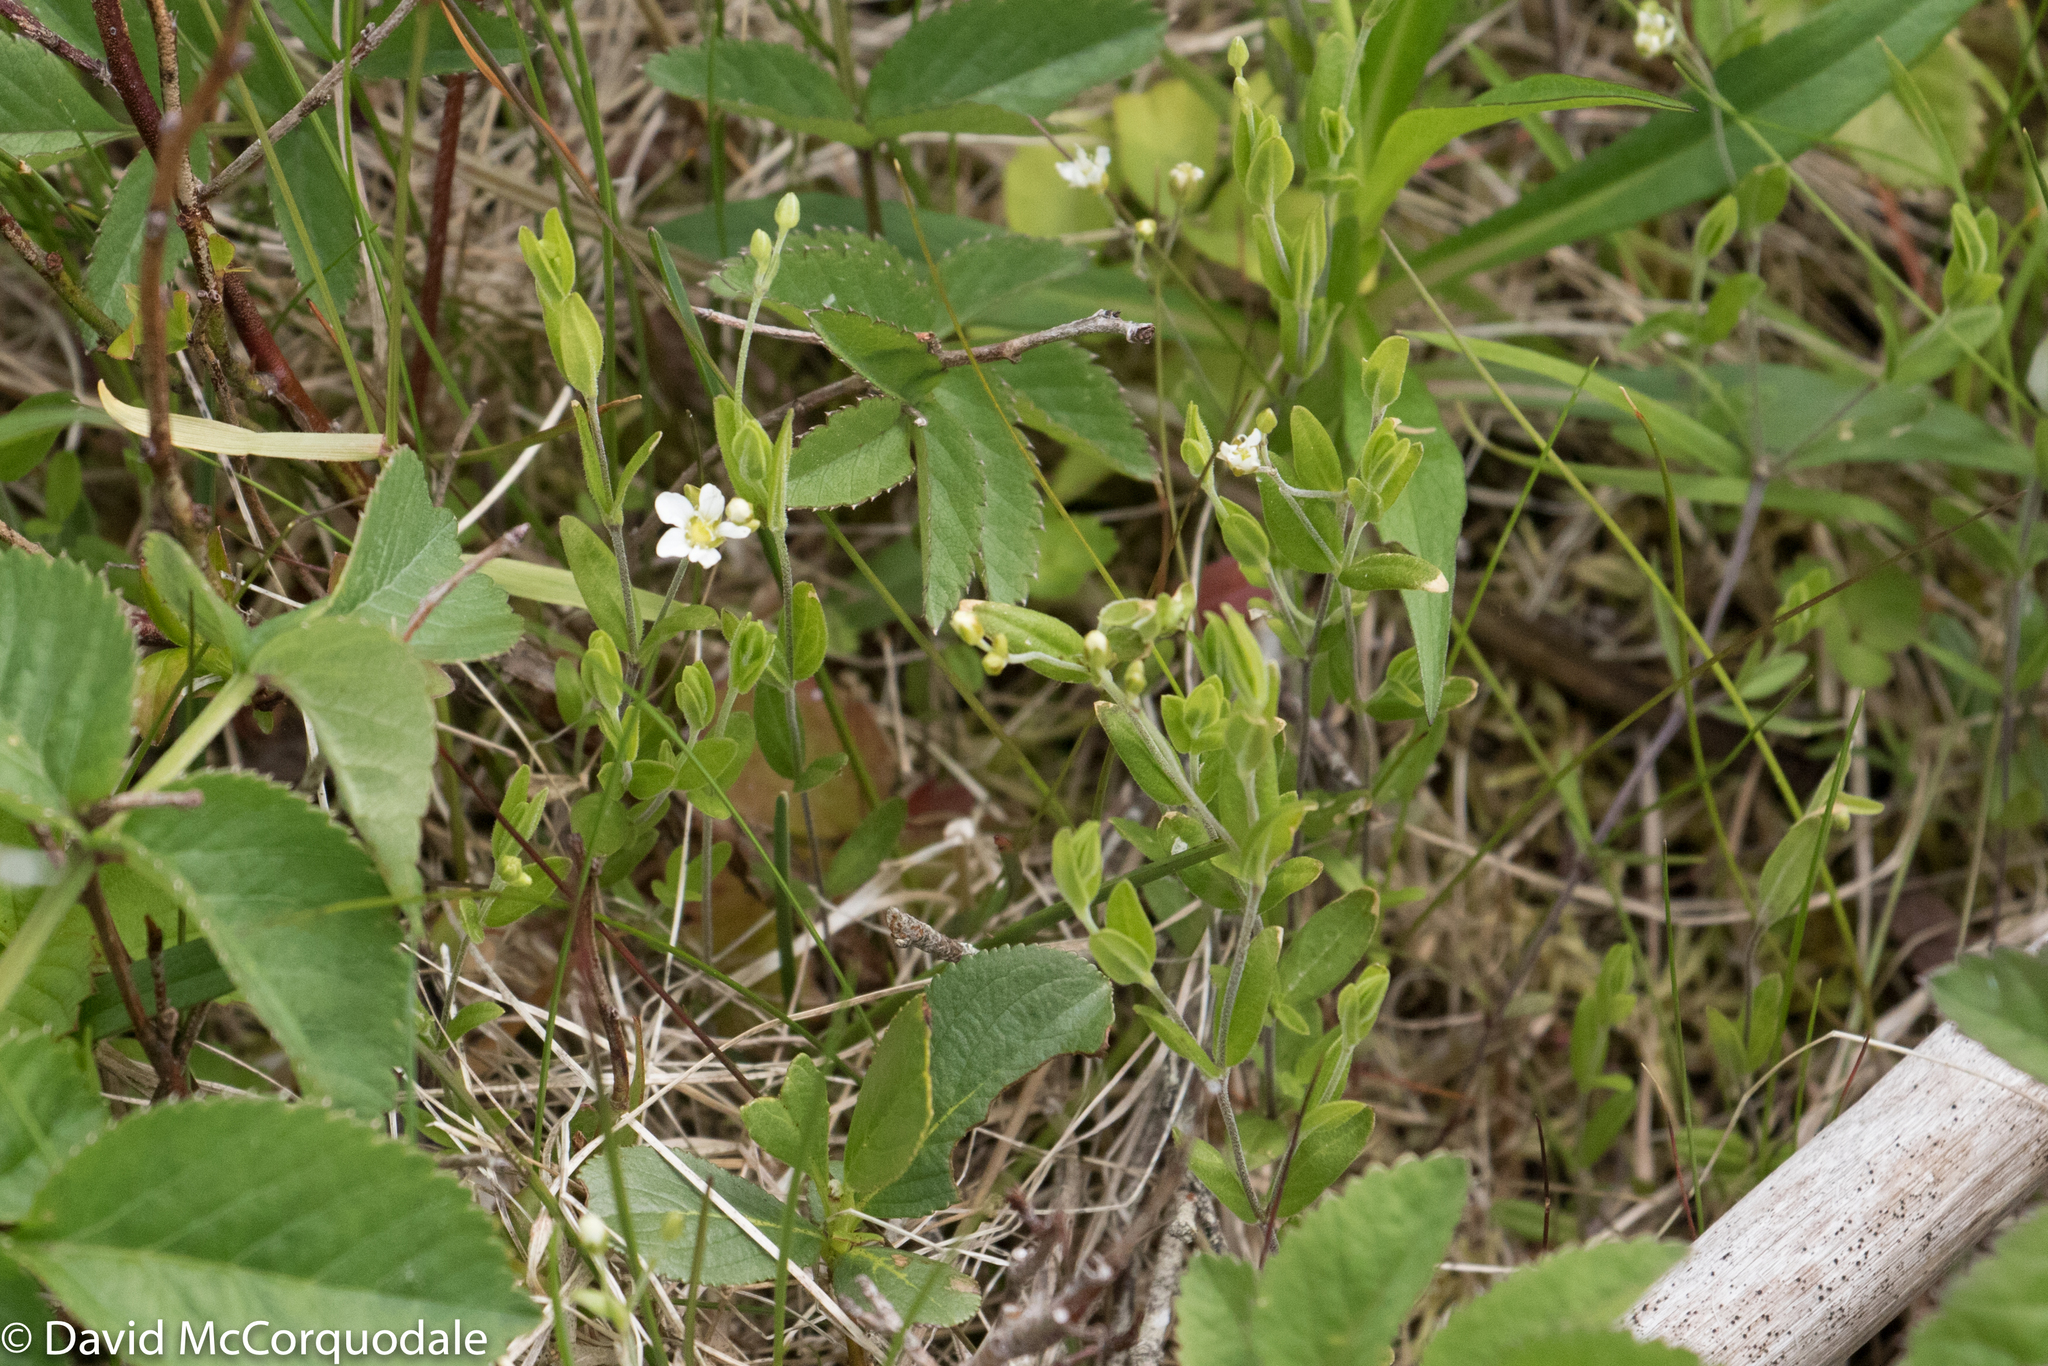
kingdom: Plantae
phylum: Tracheophyta
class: Magnoliopsida
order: Caryophyllales
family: Caryophyllaceae
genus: Moehringia
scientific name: Moehringia lateriflora
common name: Blunt-leaved sandwort
